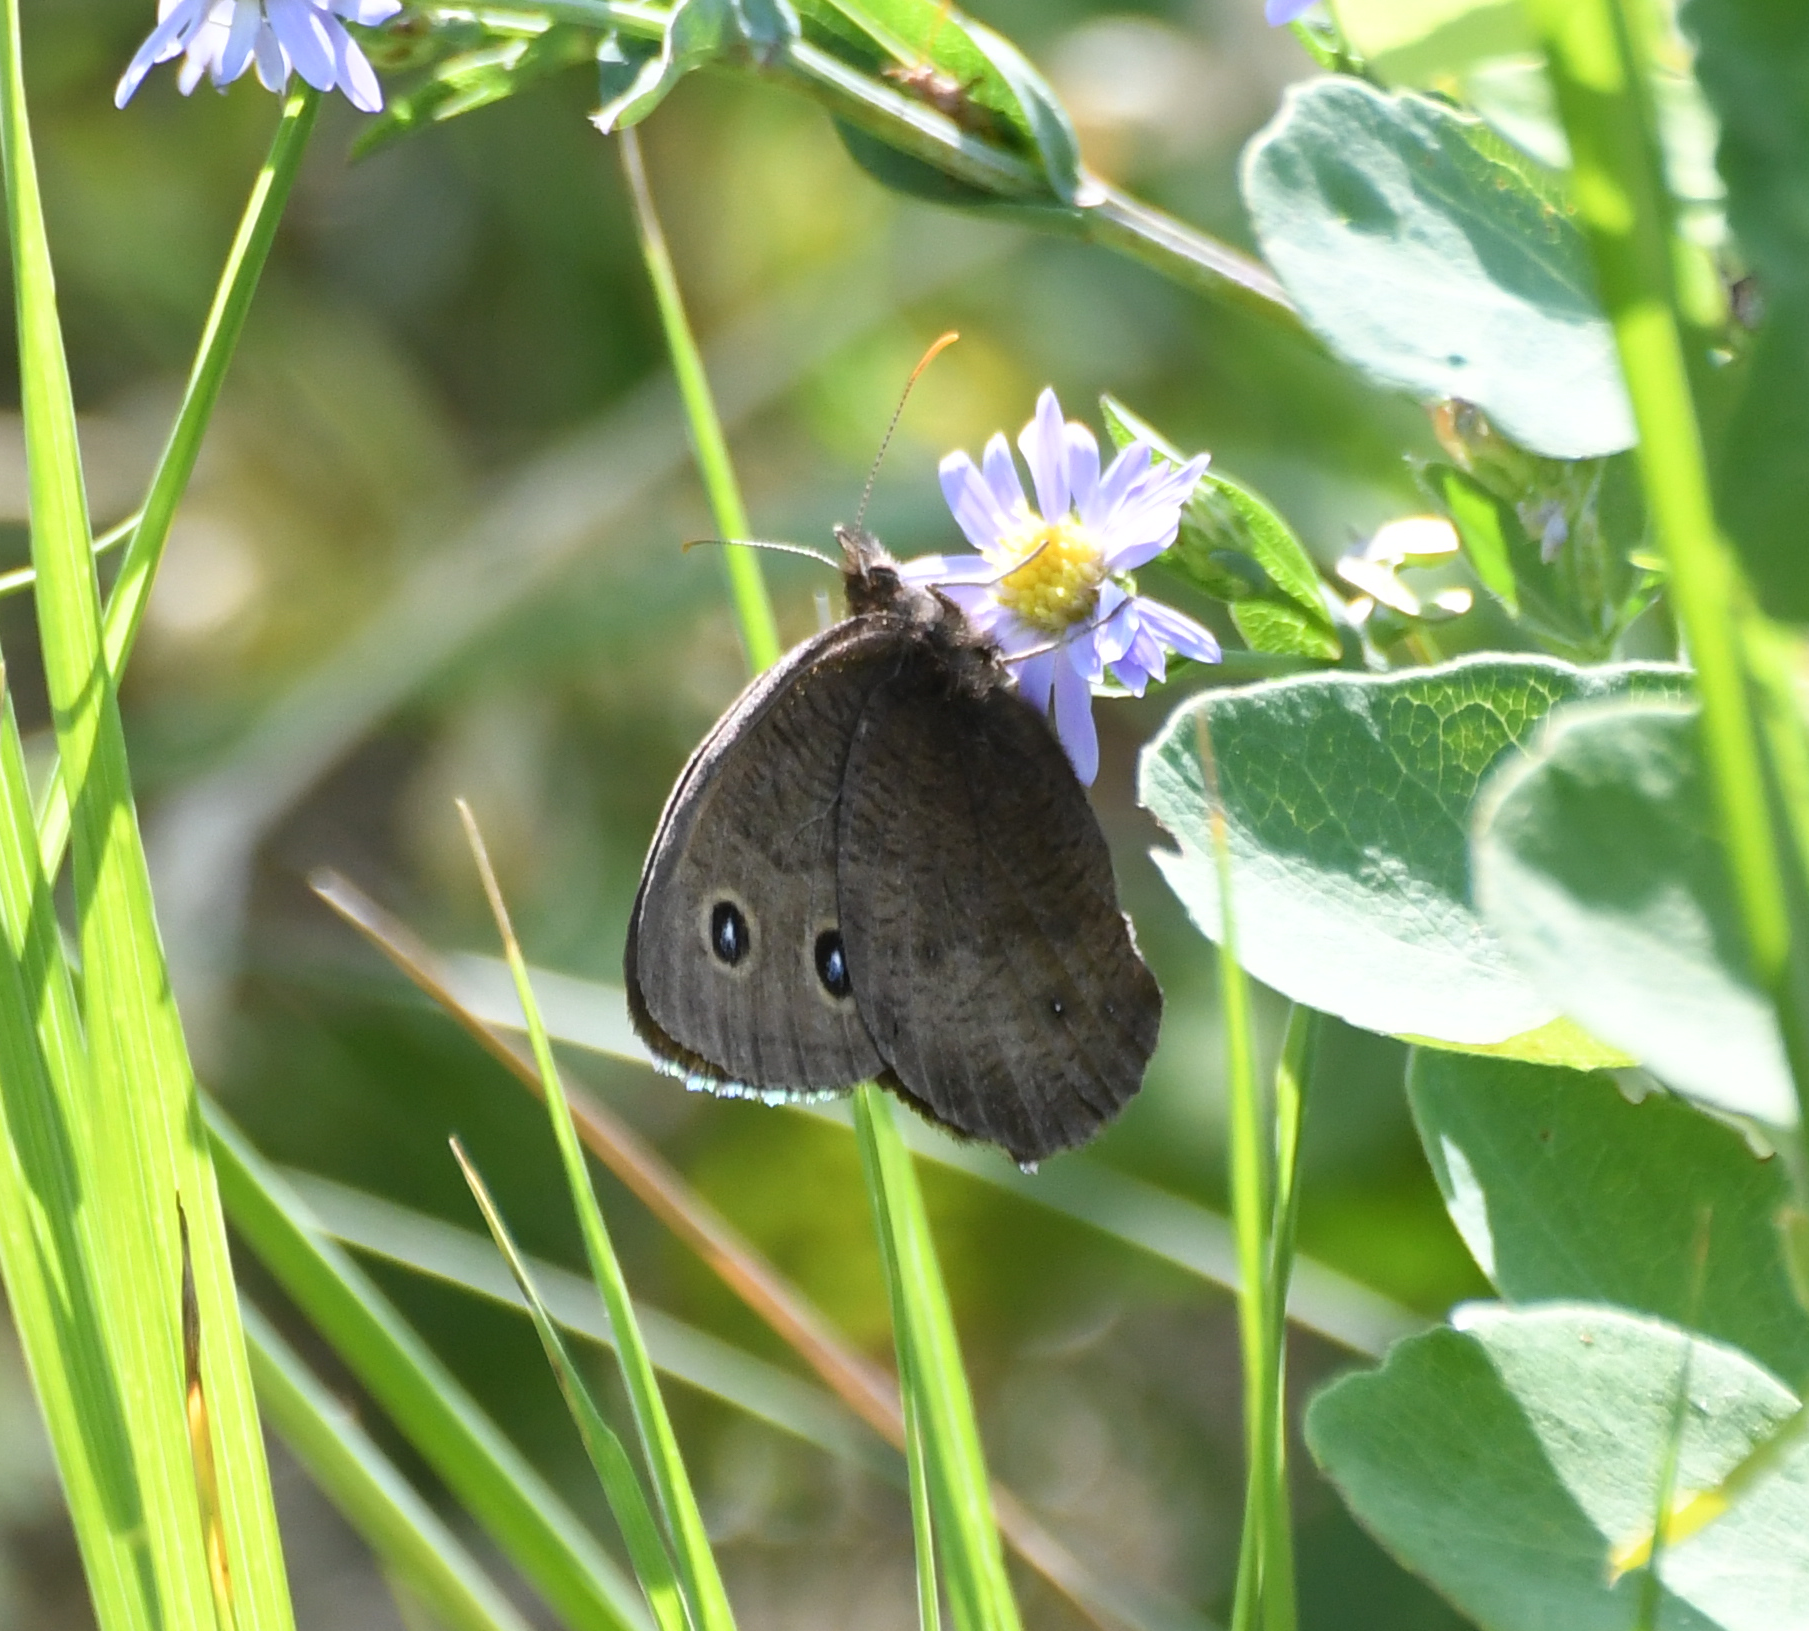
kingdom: Animalia
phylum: Arthropoda
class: Insecta
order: Lepidoptera
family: Nymphalidae
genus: Cercyonis
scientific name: Cercyonis pegala
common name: Common wood-nymph
